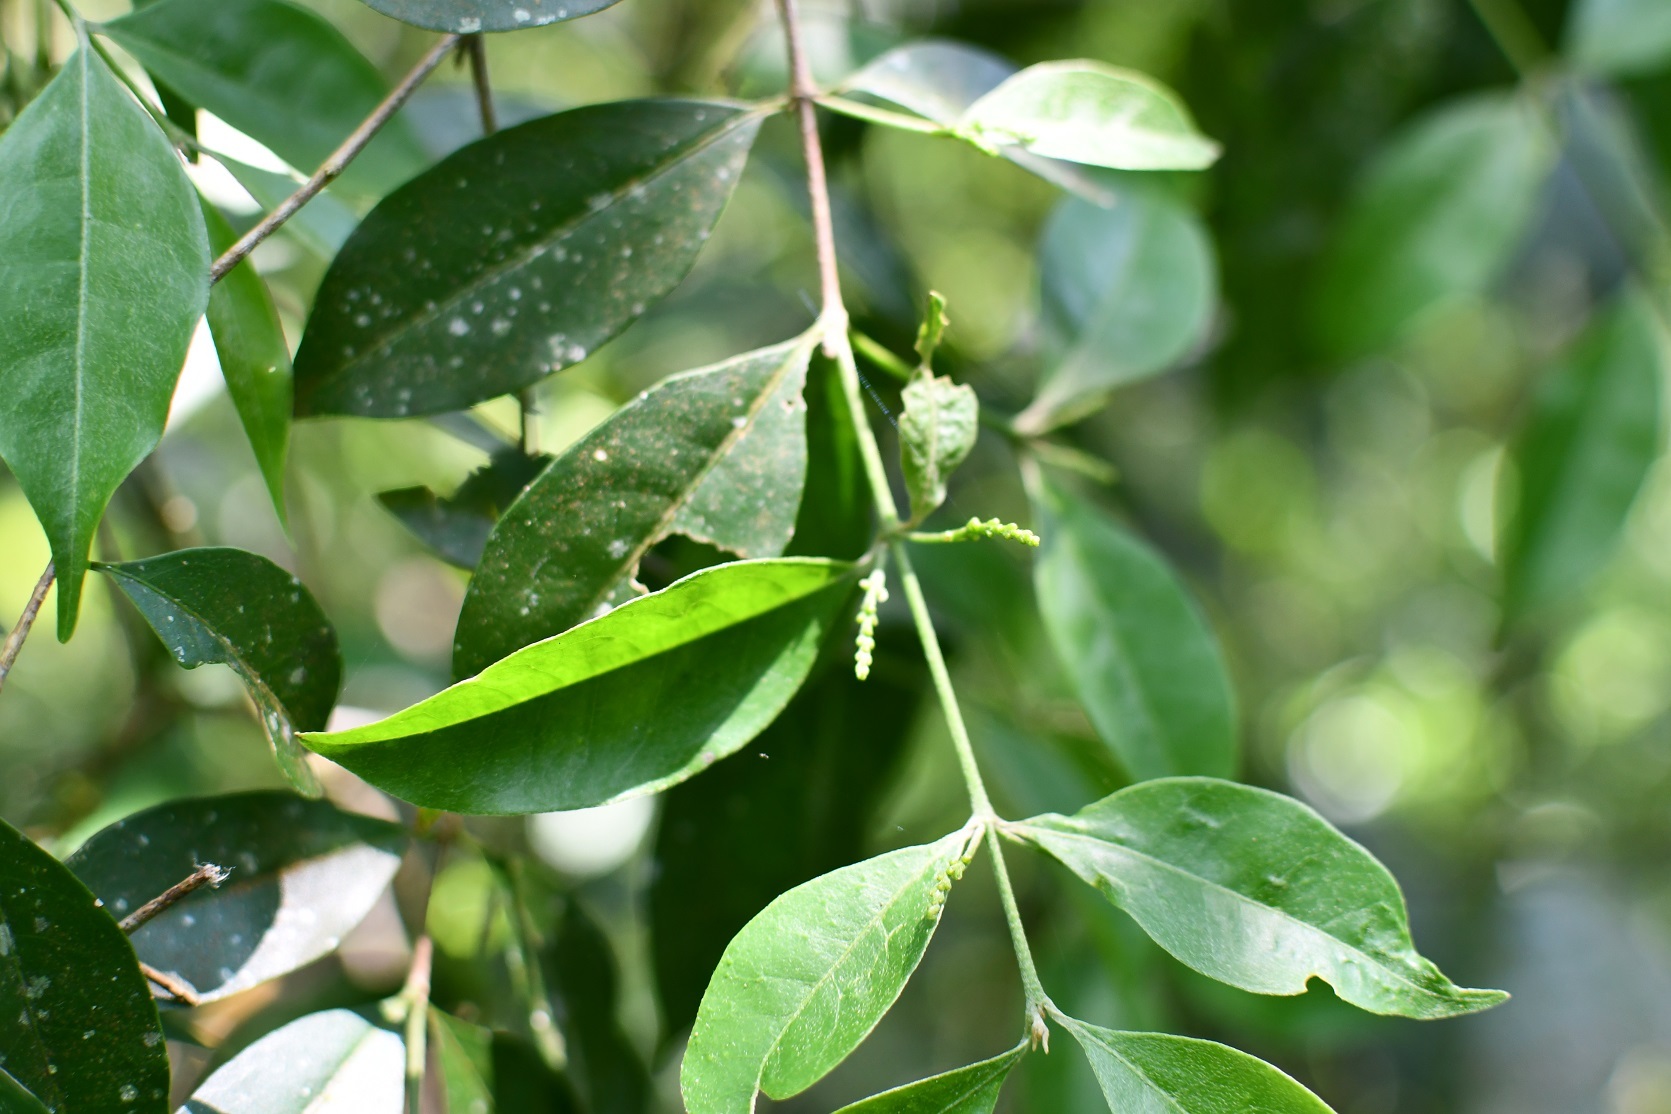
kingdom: Plantae
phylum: Tracheophyta
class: Magnoliopsida
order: Malpighiales
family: Malpighiaceae
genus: Bunchosia
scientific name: Bunchosia biocellata
